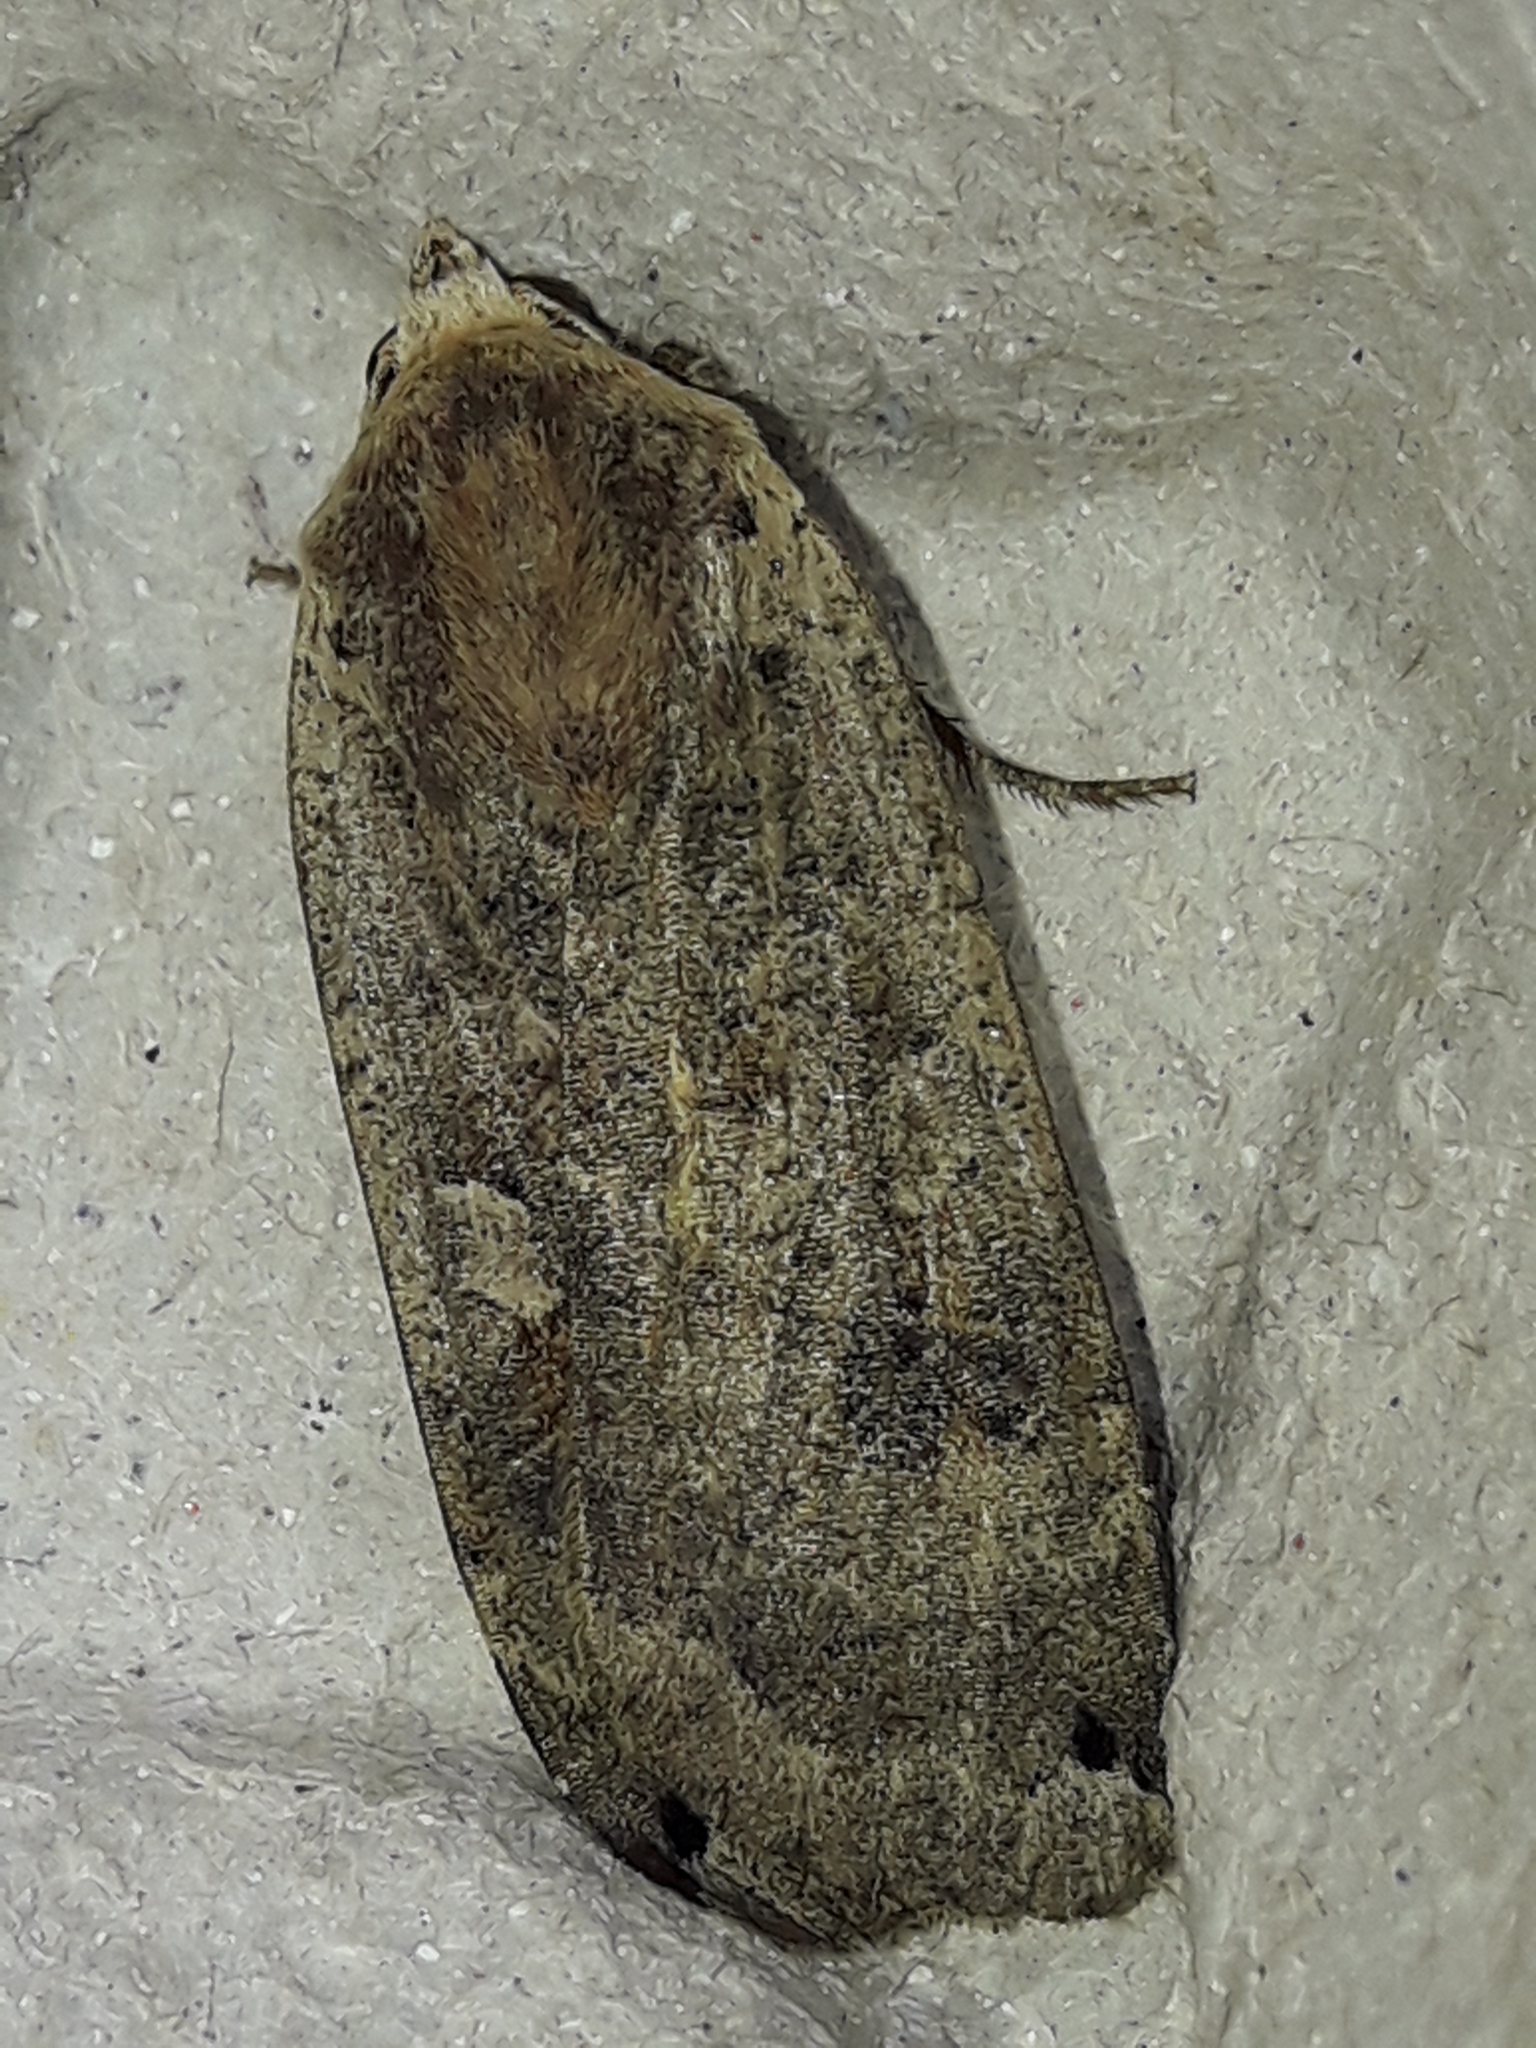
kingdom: Animalia
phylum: Arthropoda
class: Insecta
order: Lepidoptera
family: Noctuidae
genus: Noctua
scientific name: Noctua pronuba
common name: Large yellow underwing
